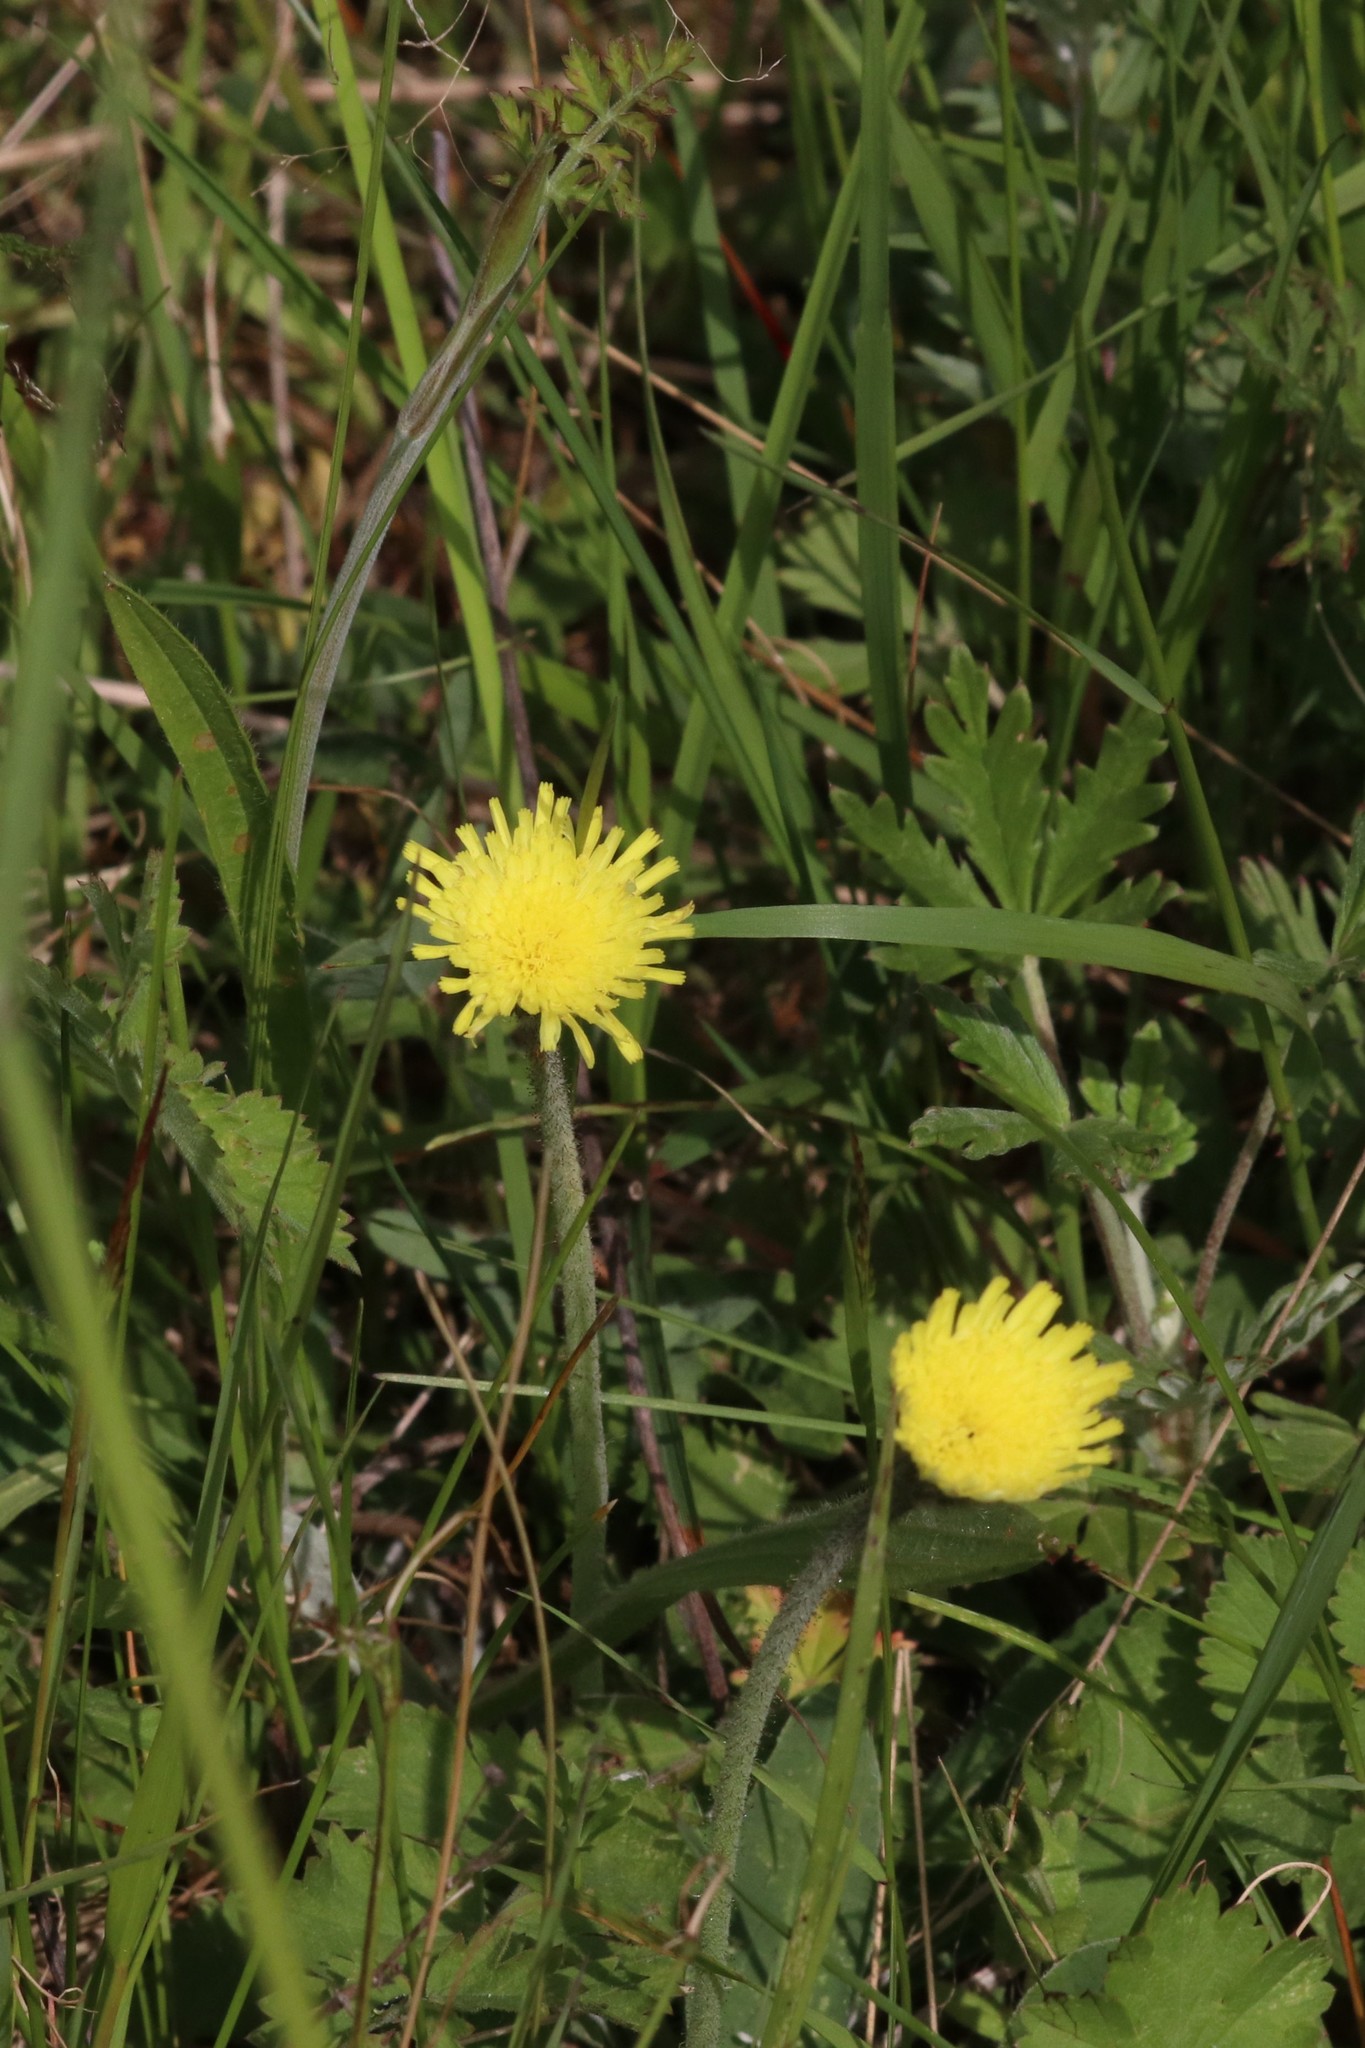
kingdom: Plantae
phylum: Tracheophyta
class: Magnoliopsida
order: Asterales
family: Asteraceae
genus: Pilosella
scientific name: Pilosella officinarum
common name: Mouse-ear hawkweed
